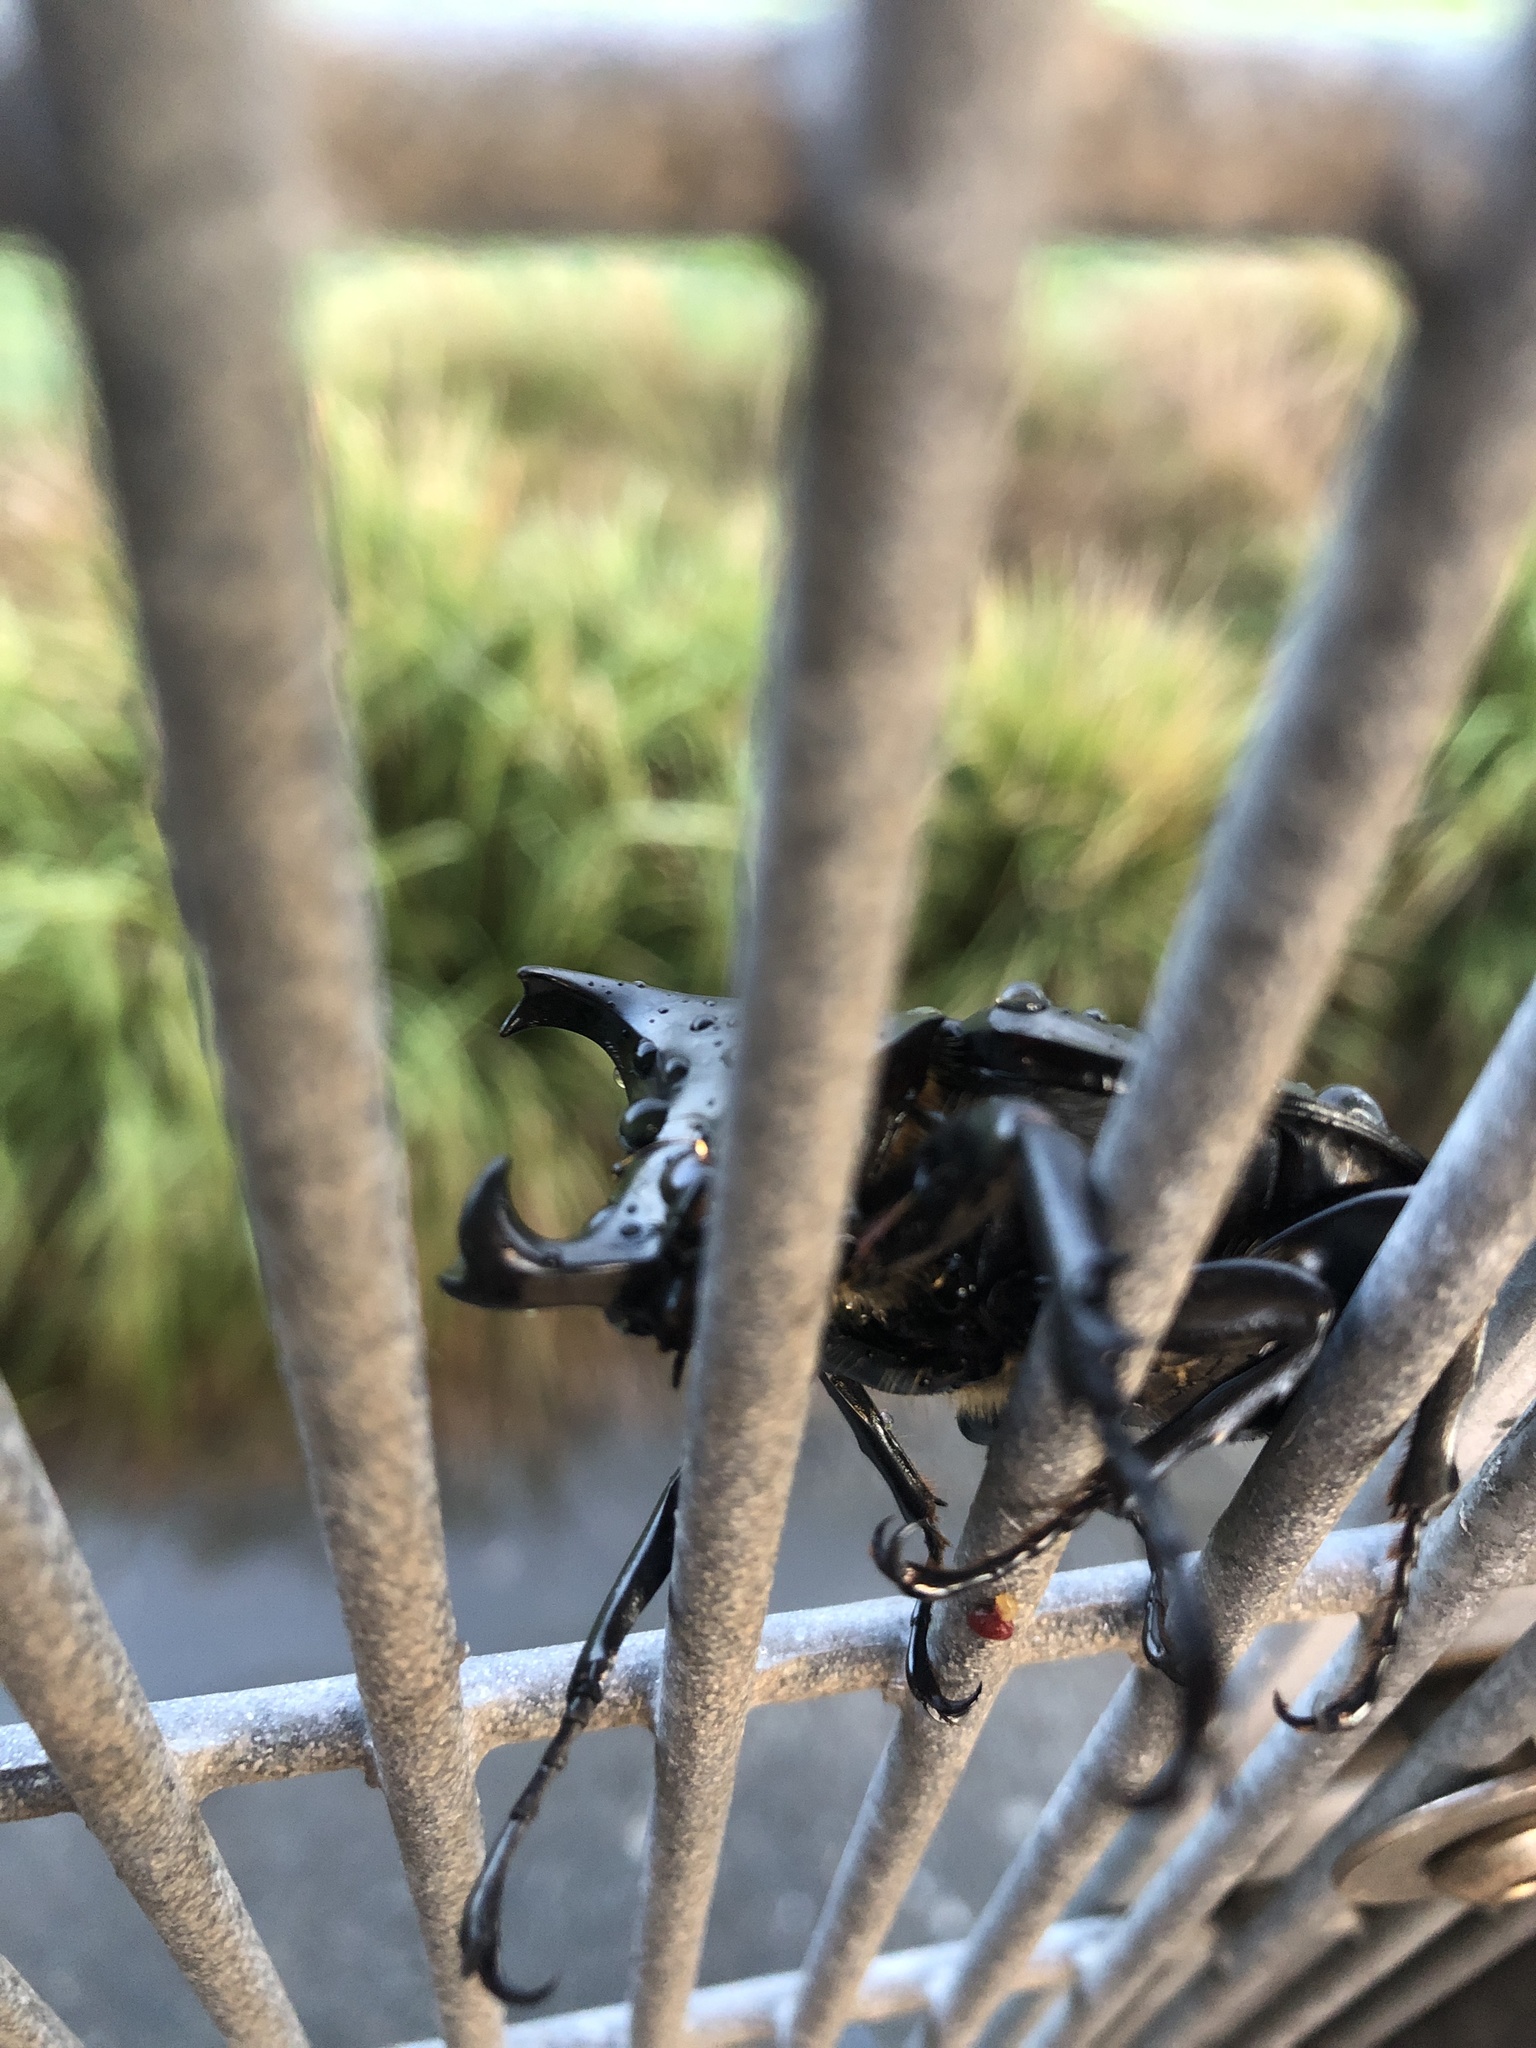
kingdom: Animalia
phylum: Arthropoda
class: Insecta
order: Coleoptera
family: Scarabaeidae
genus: Xylotrupes
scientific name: Xylotrupes australicus
